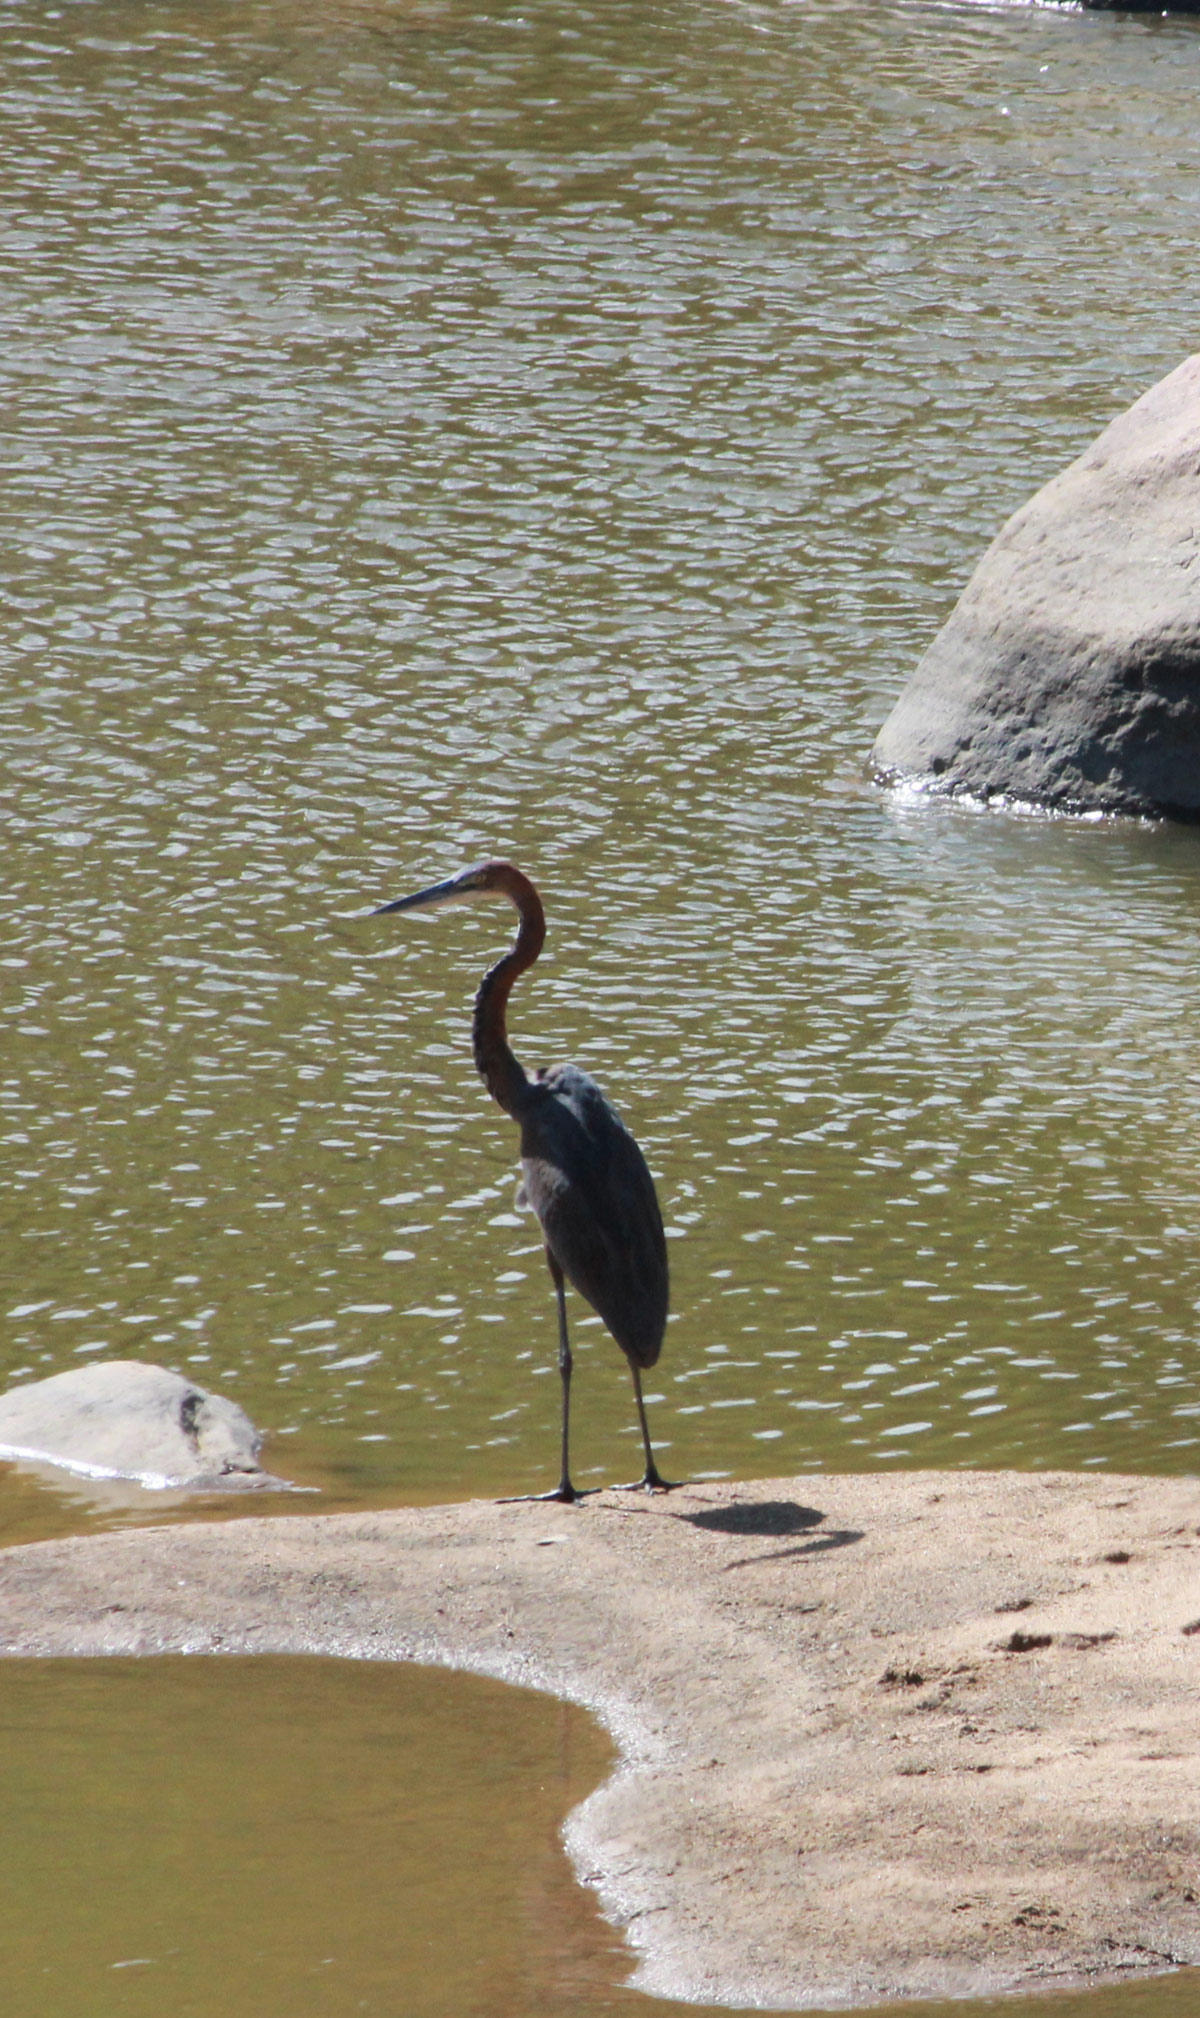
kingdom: Animalia
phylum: Chordata
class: Aves
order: Pelecaniformes
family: Ardeidae
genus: Ardea
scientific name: Ardea goliath
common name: Goliath heron
